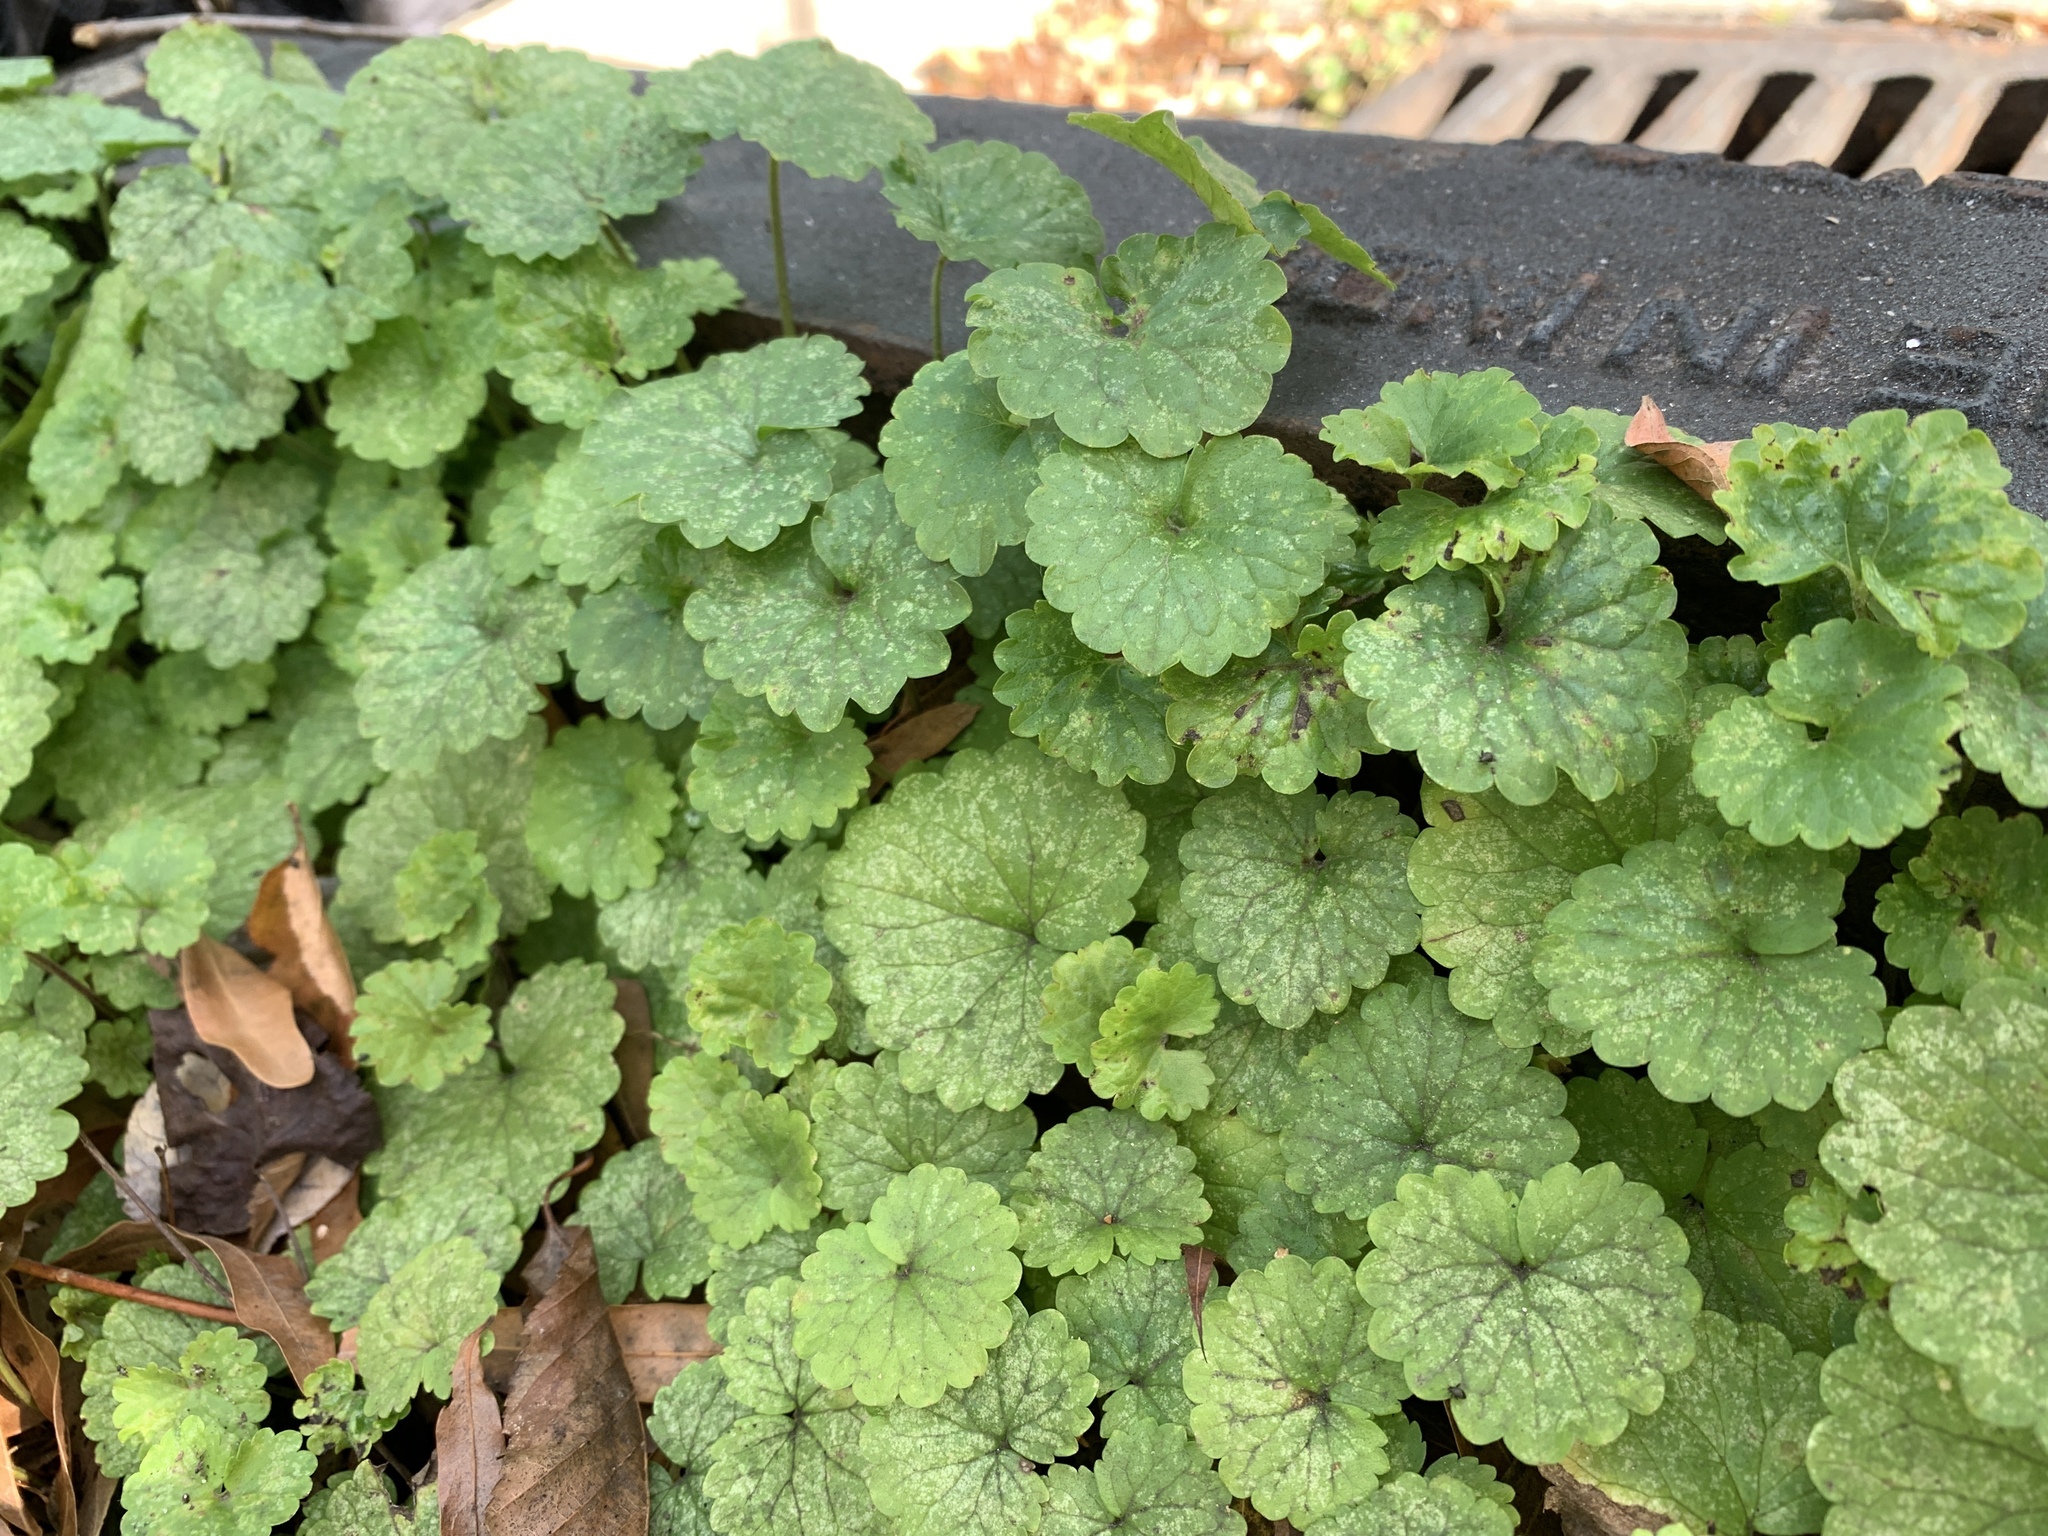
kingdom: Plantae
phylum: Tracheophyta
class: Magnoliopsida
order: Lamiales
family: Lamiaceae
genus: Glechoma
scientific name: Glechoma hederacea
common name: Ground ivy
